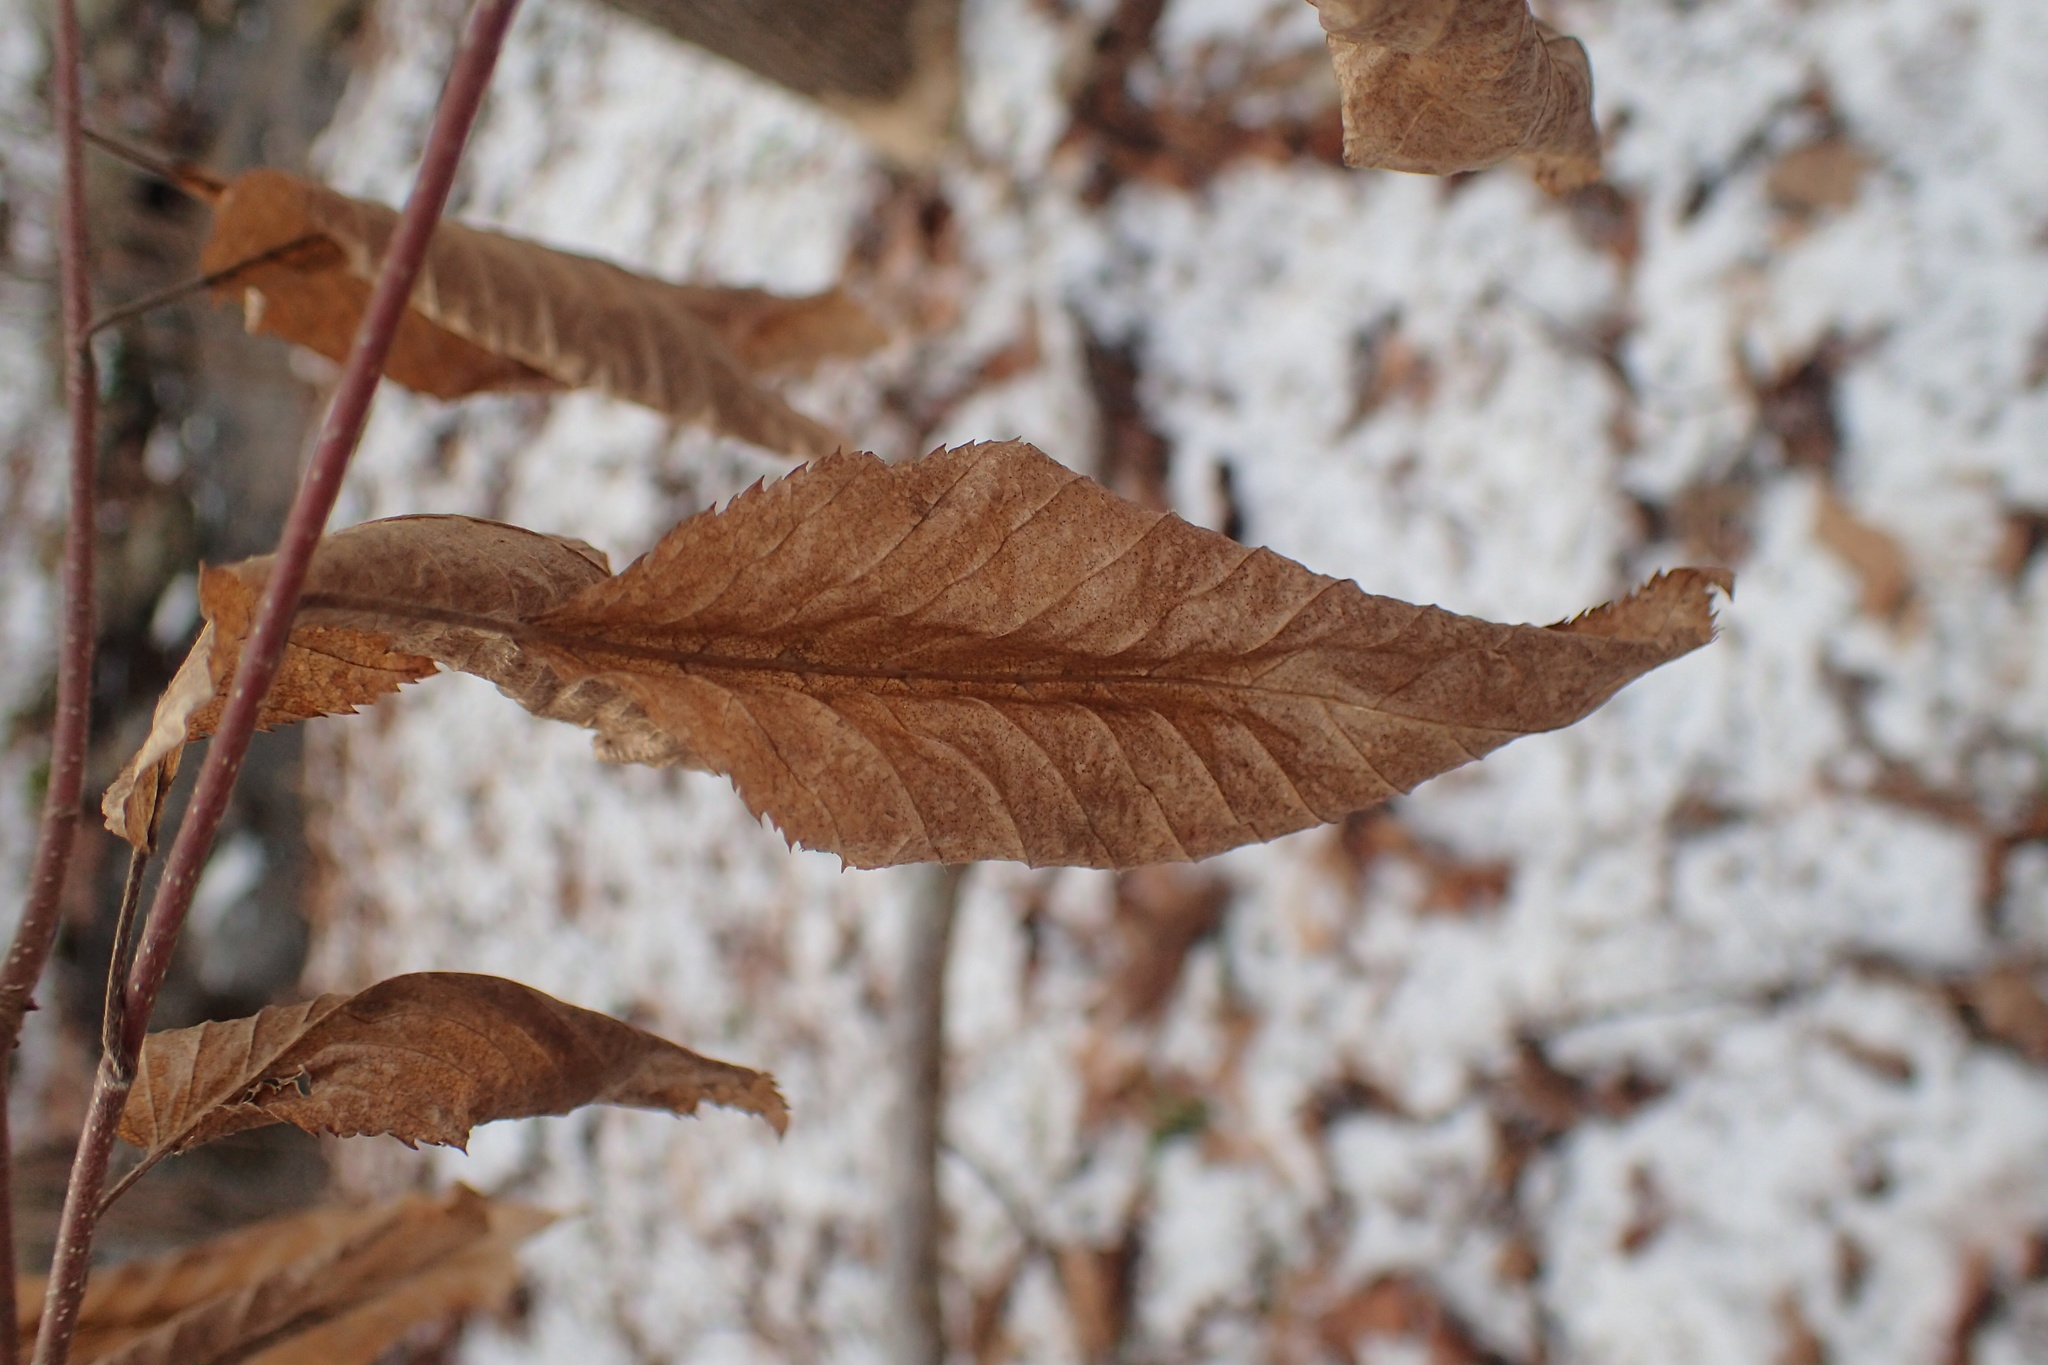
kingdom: Plantae
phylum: Tracheophyta
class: Magnoliopsida
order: Fagales
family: Betulaceae
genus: Carpinus
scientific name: Carpinus caroliniana
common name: American hornbeam
